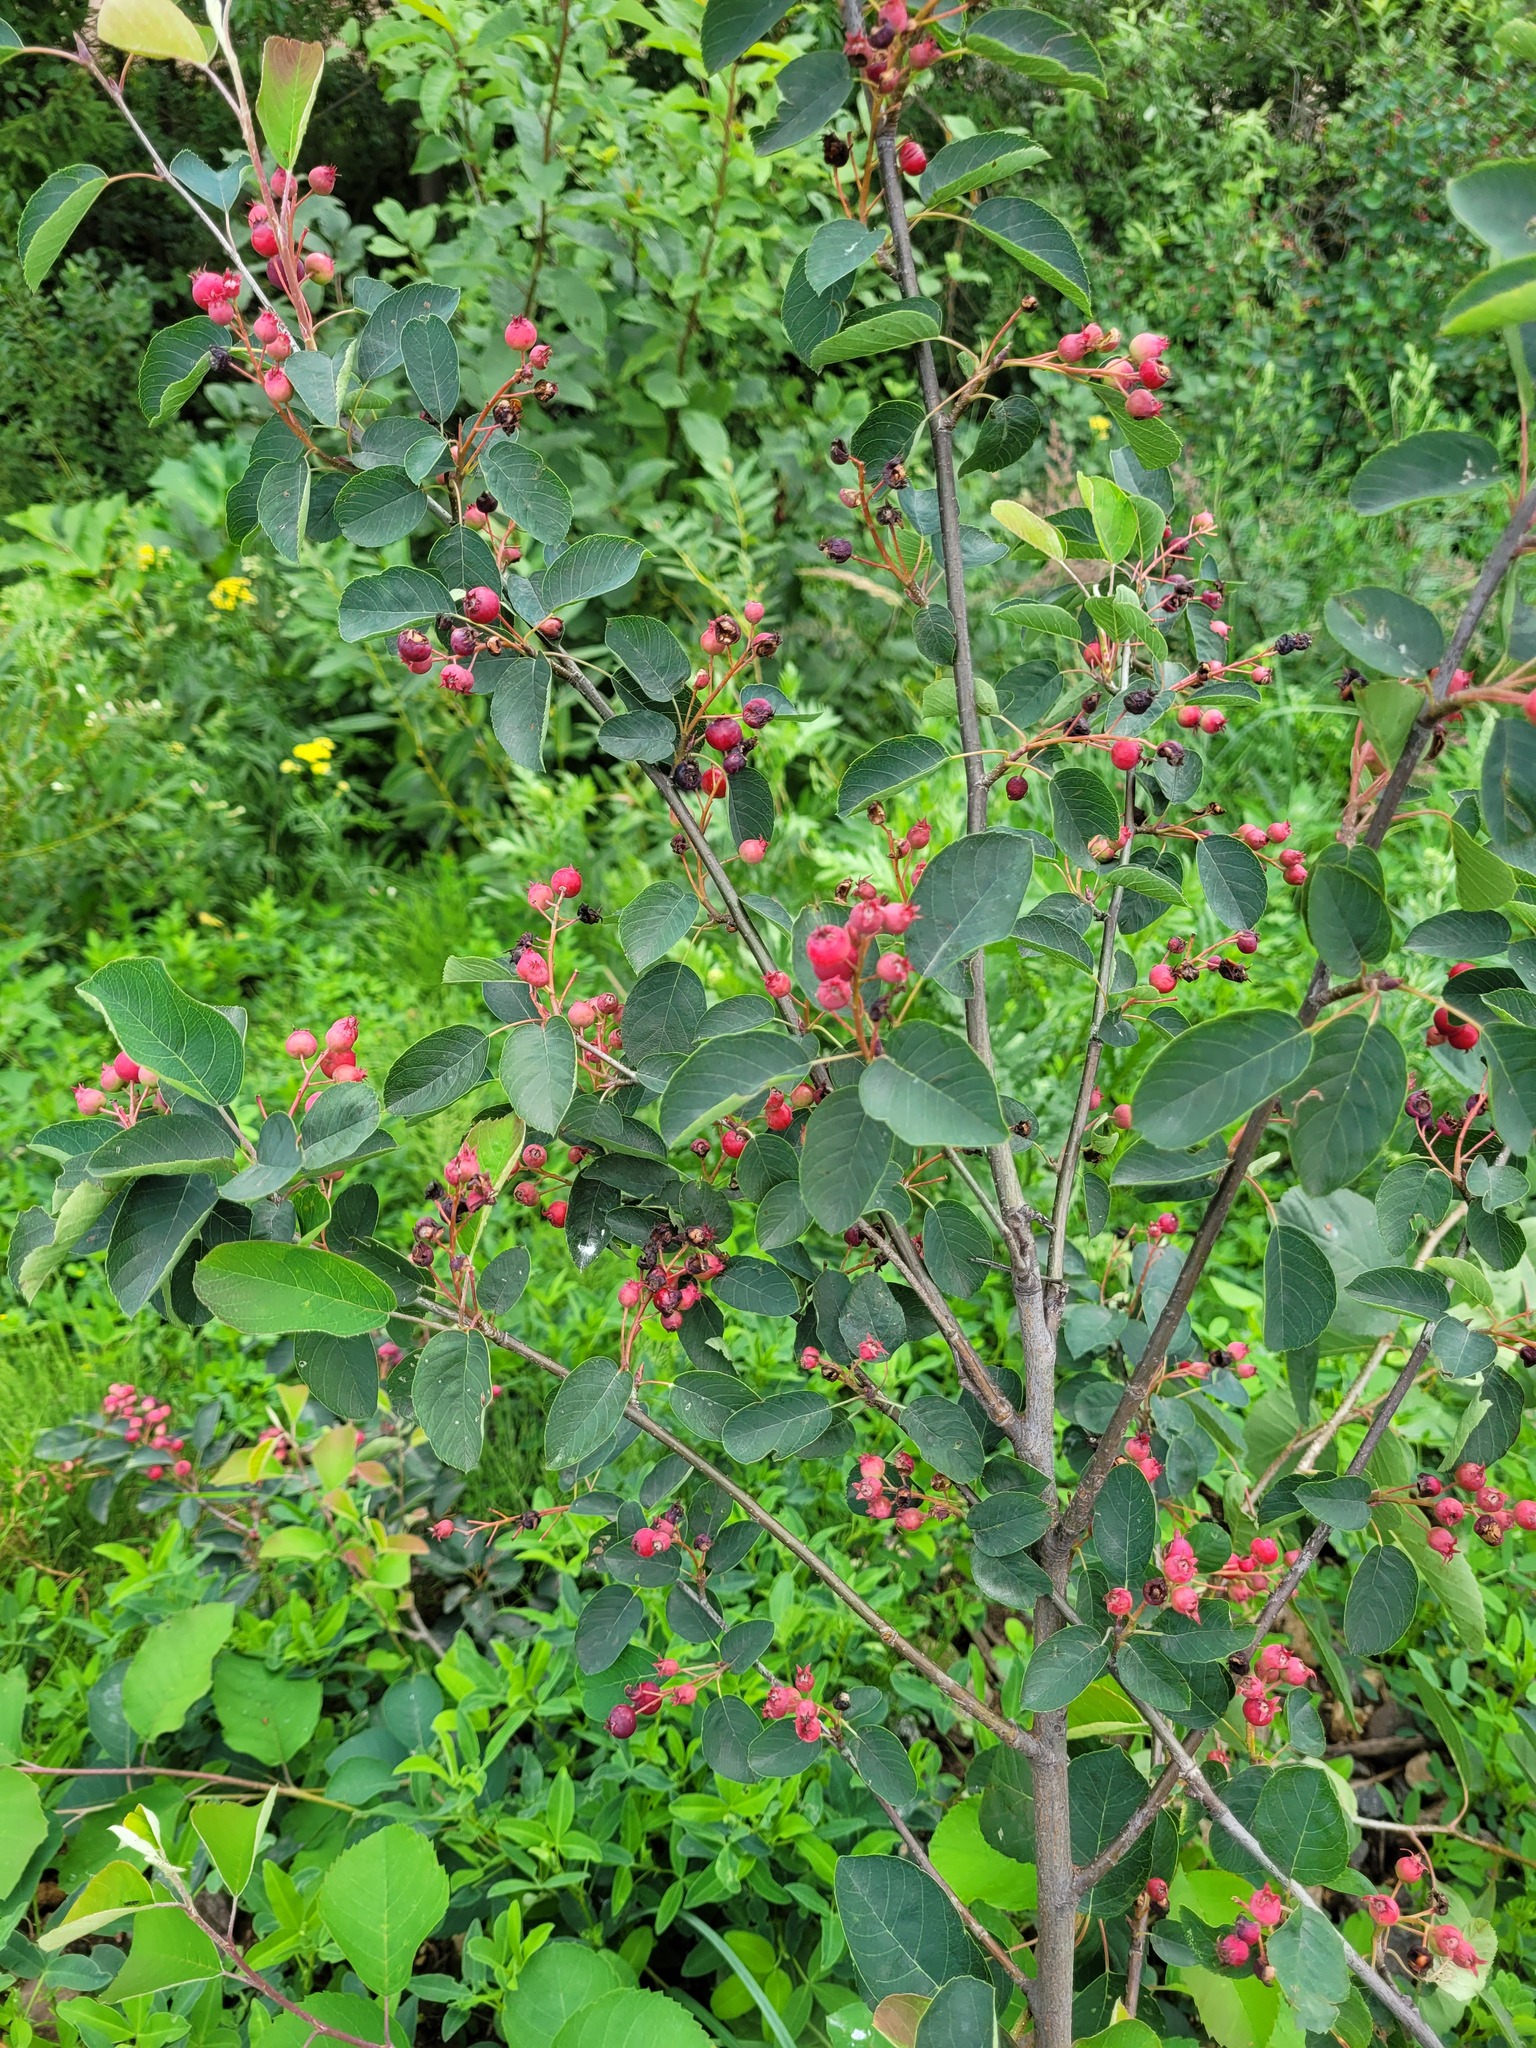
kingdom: Plantae
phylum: Tracheophyta
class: Magnoliopsida
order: Rosales
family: Rosaceae
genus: Amelanchier
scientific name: Amelanchier
